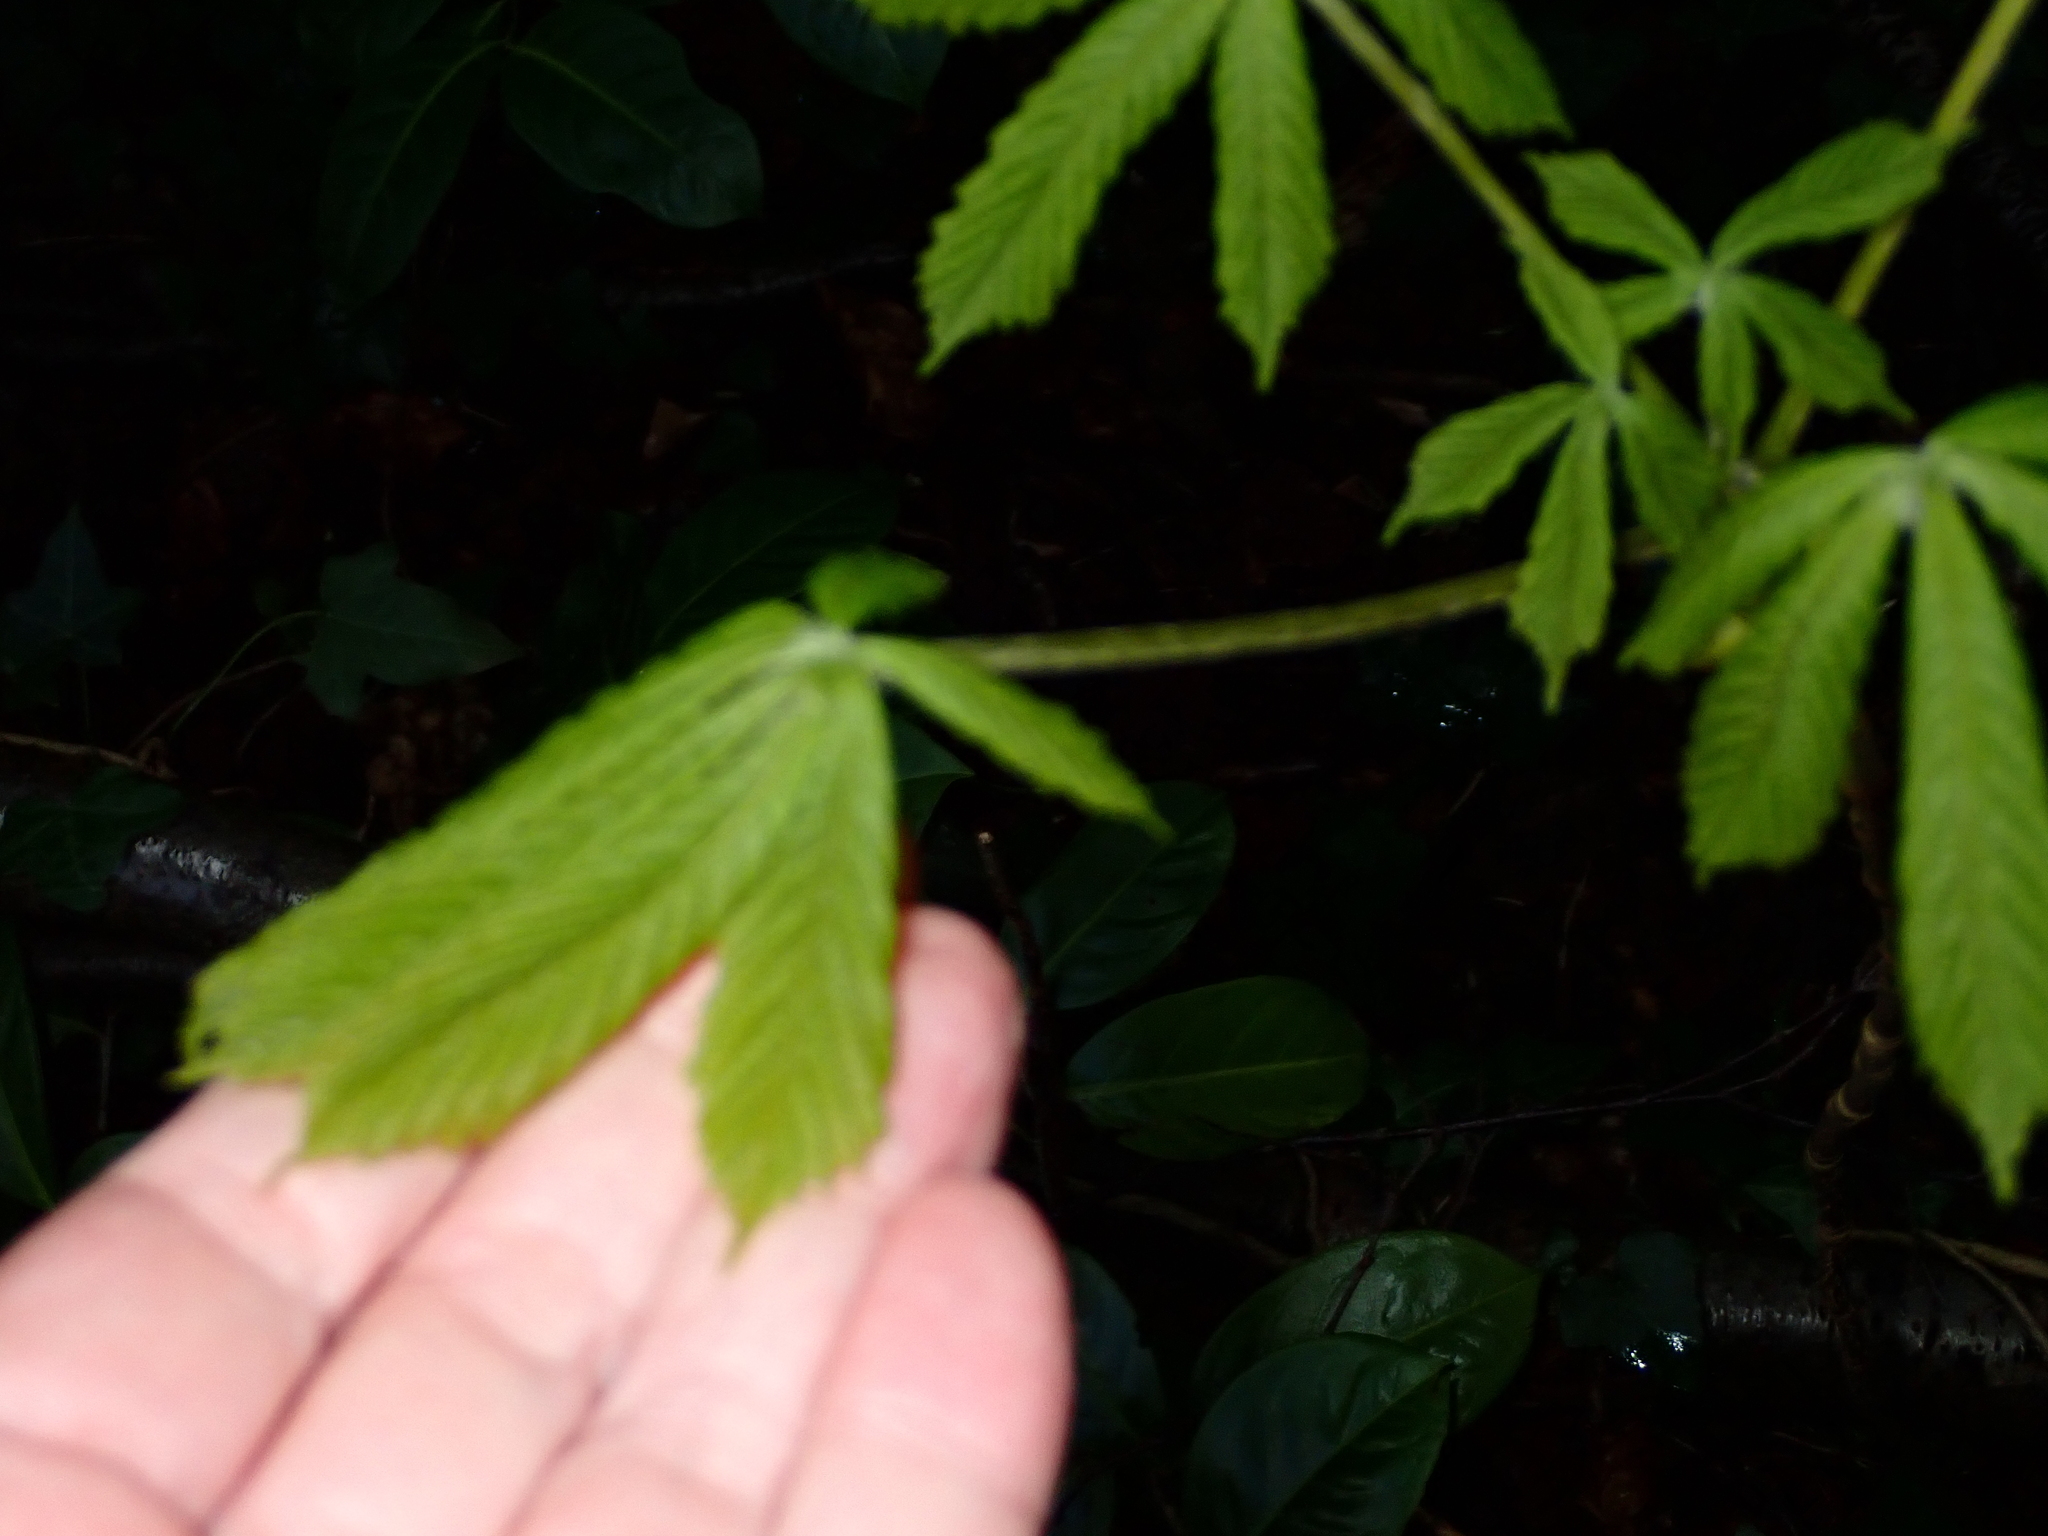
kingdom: Plantae
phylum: Tracheophyta
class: Magnoliopsida
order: Sapindales
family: Sapindaceae
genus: Aesculus
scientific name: Aesculus hippocastanum
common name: Horse-chestnut
